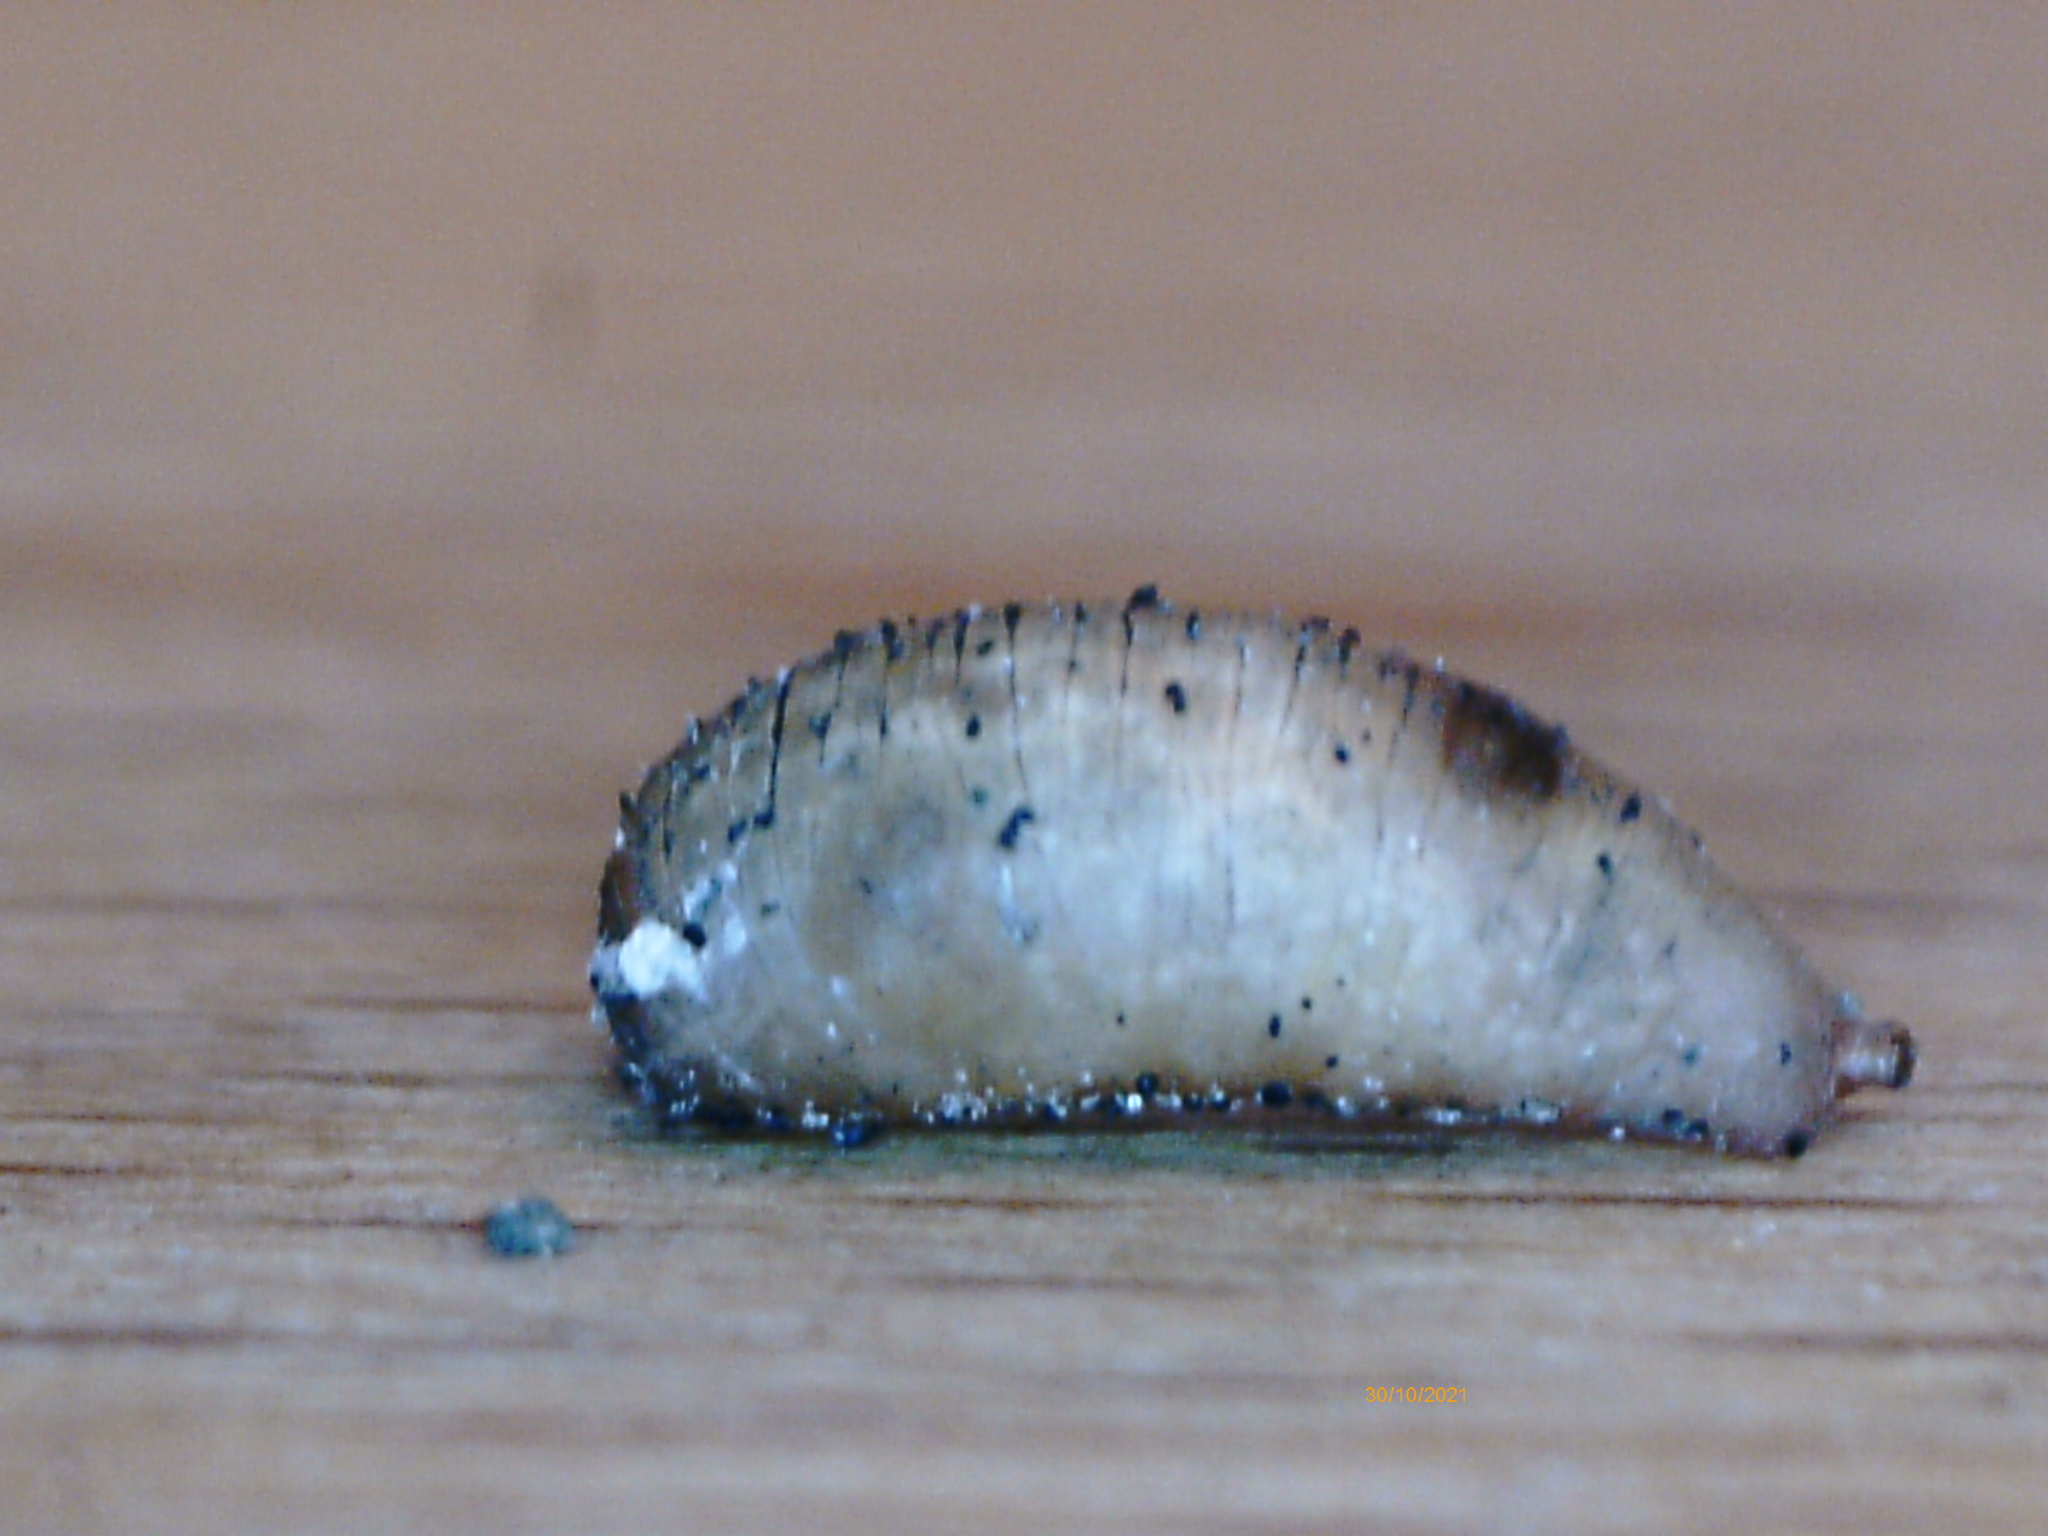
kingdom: Animalia
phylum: Arthropoda
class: Insecta
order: Diptera
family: Syrphidae
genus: Syrphus
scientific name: Syrphus
